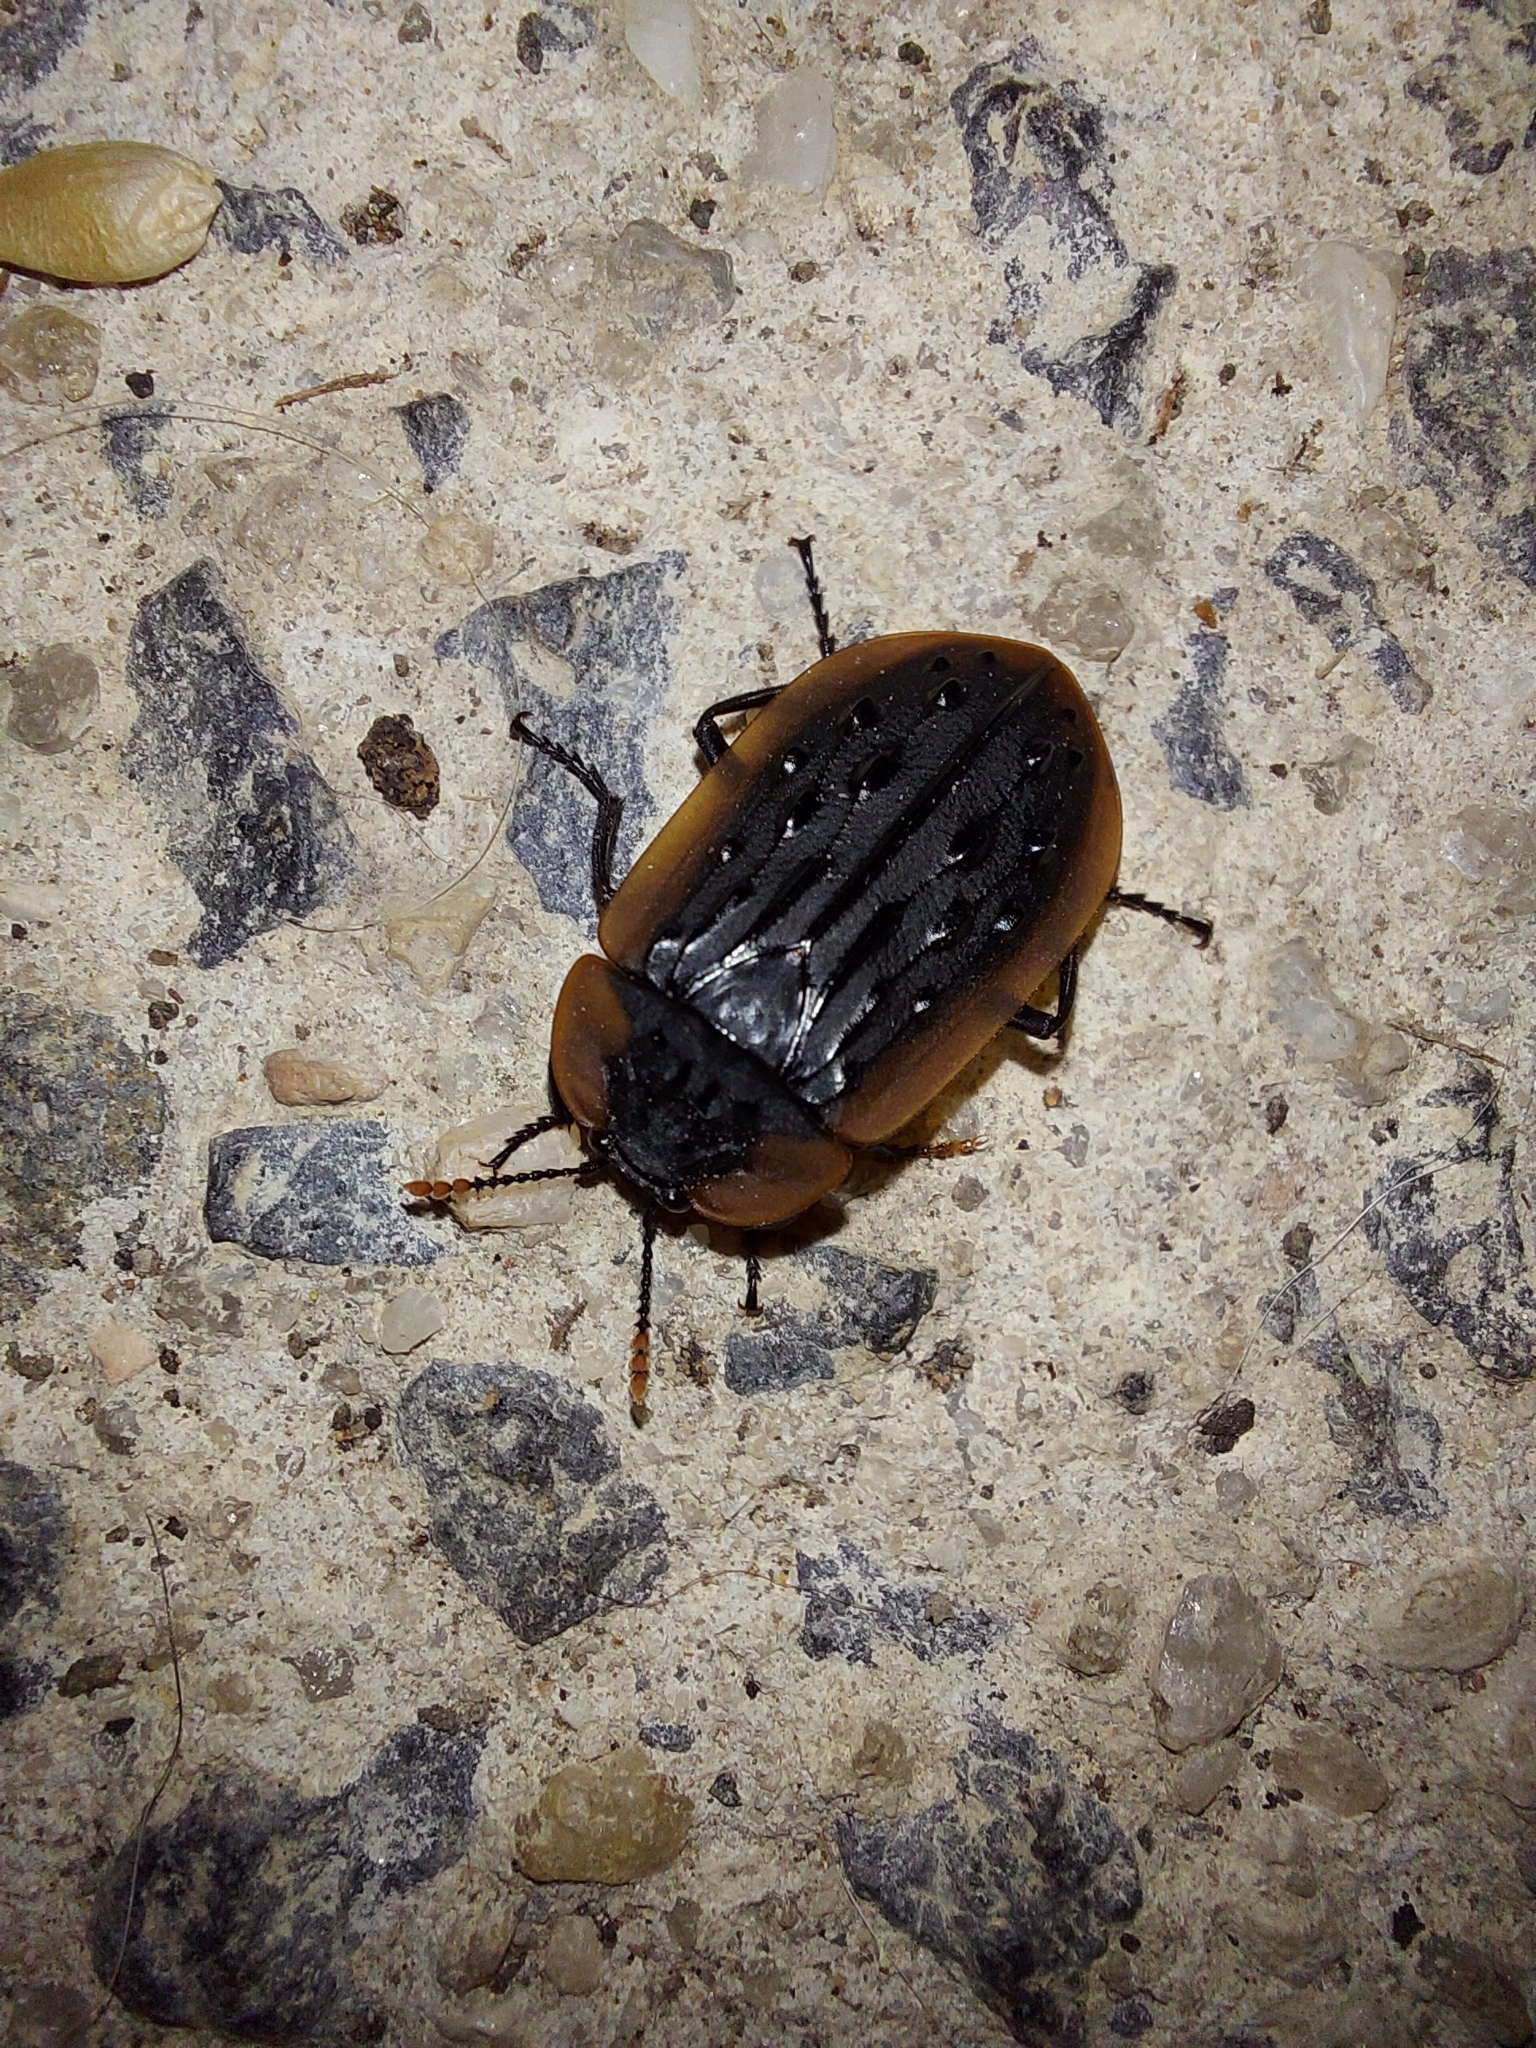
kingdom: Animalia
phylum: Arthropoda
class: Insecta
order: Coleoptera
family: Staphylinidae
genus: Ptomaphila
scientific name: Ptomaphila lacrymosa
